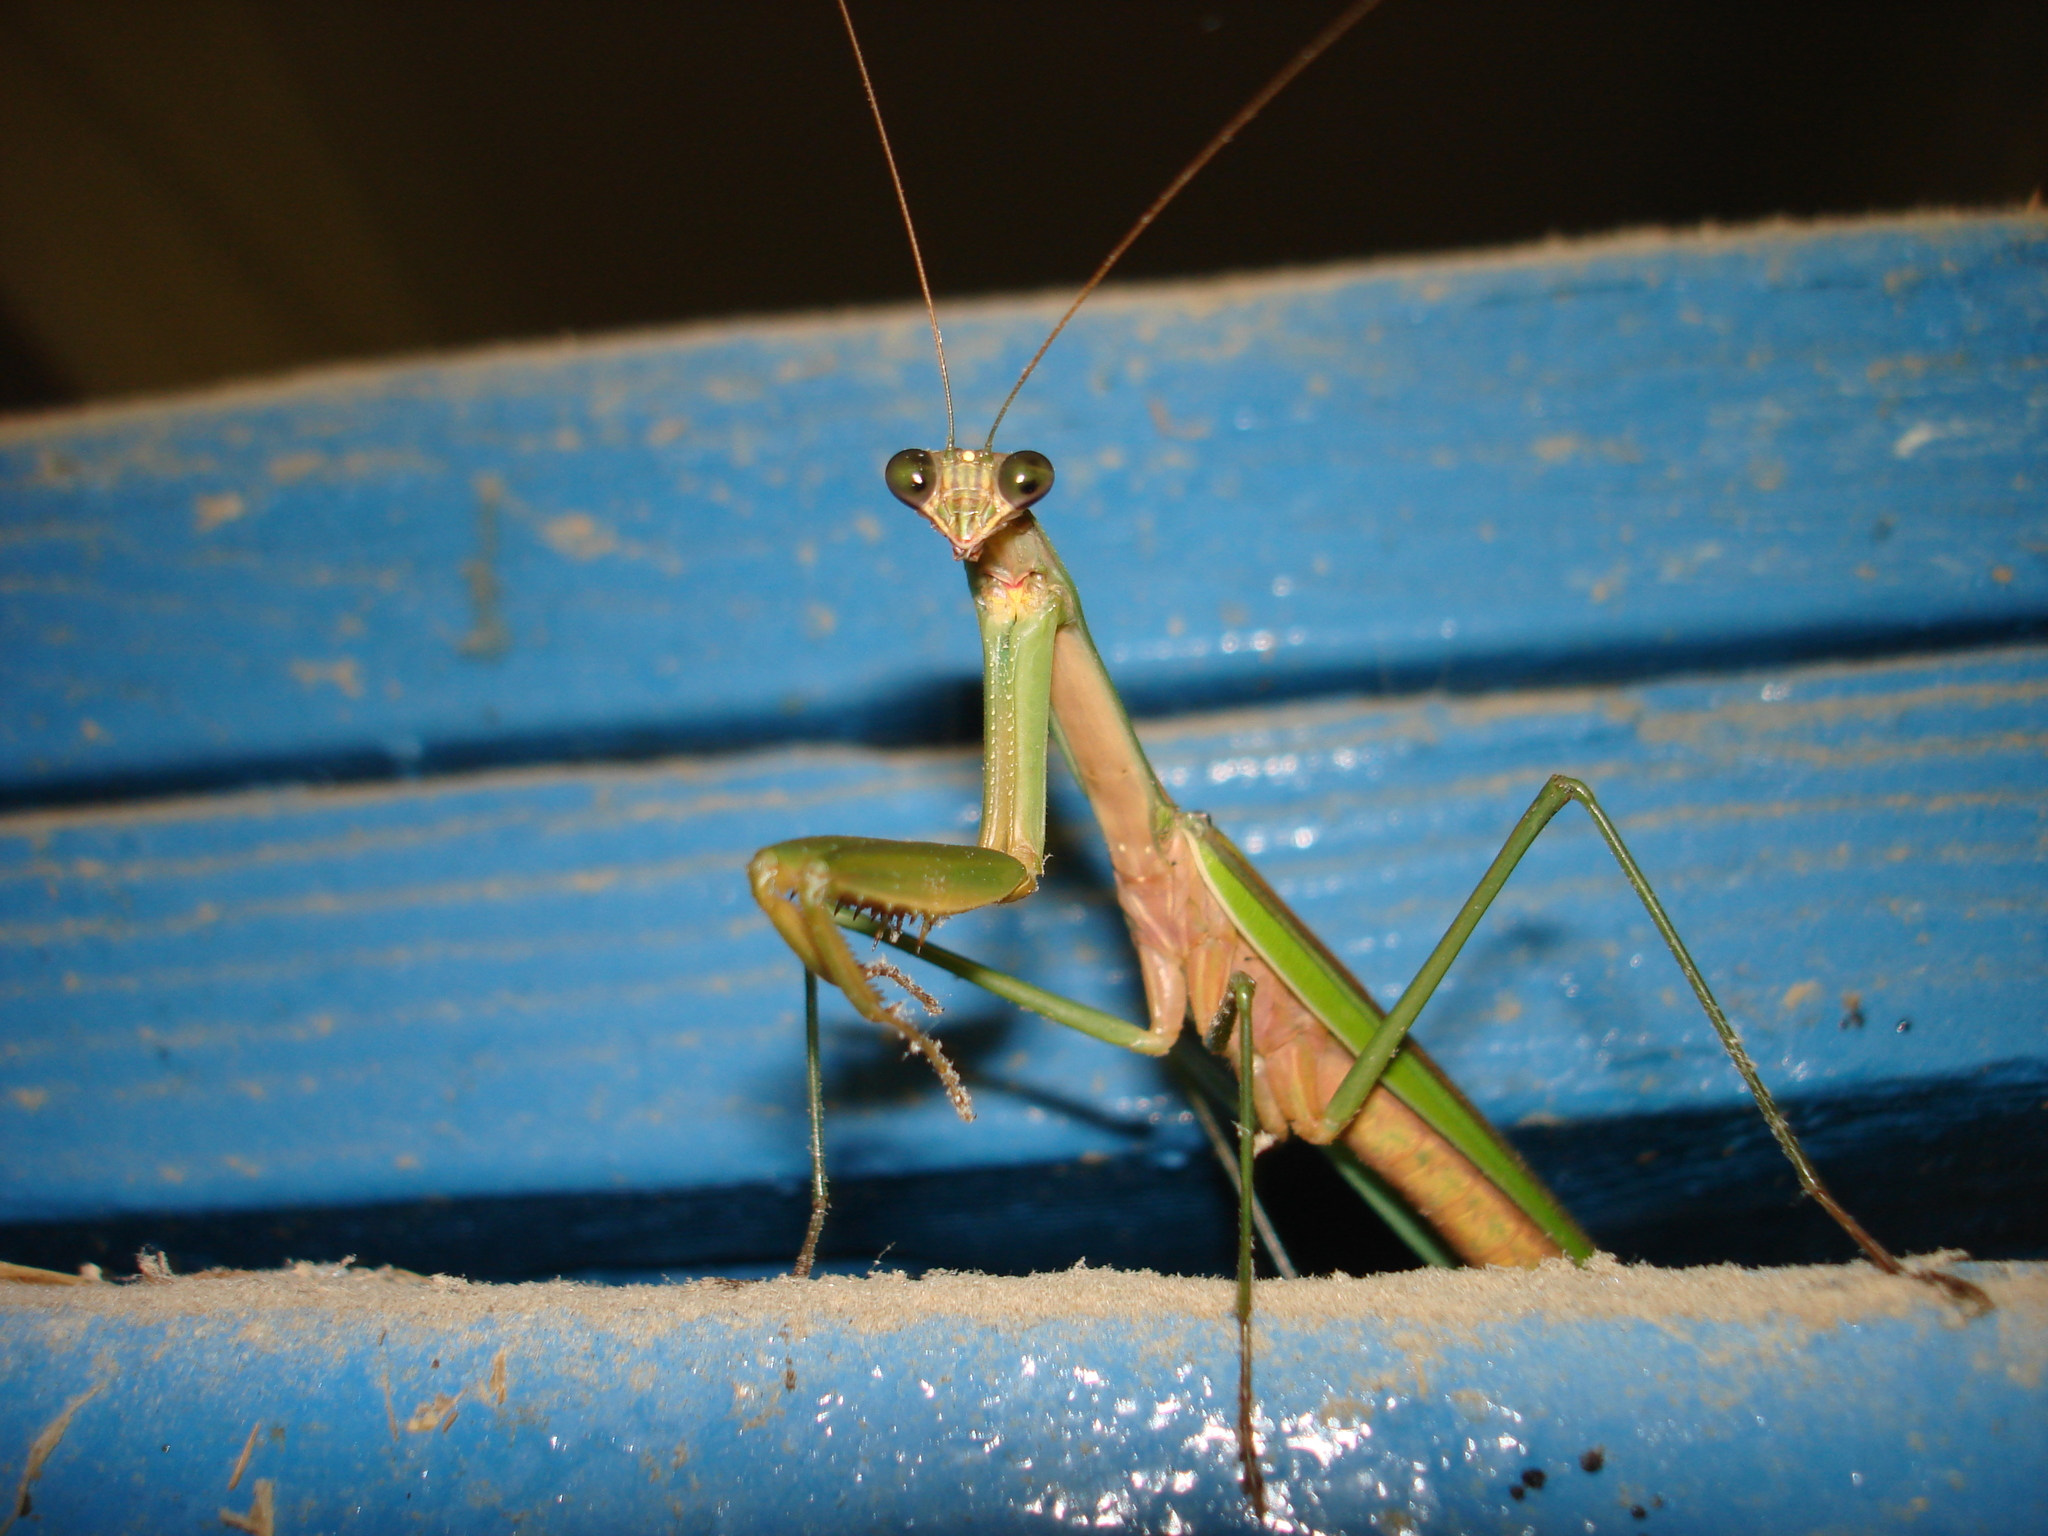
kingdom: Animalia
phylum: Arthropoda
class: Insecta
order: Mantodea
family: Mantidae
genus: Tenodera
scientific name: Tenodera sinensis
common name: Chinese mantis
